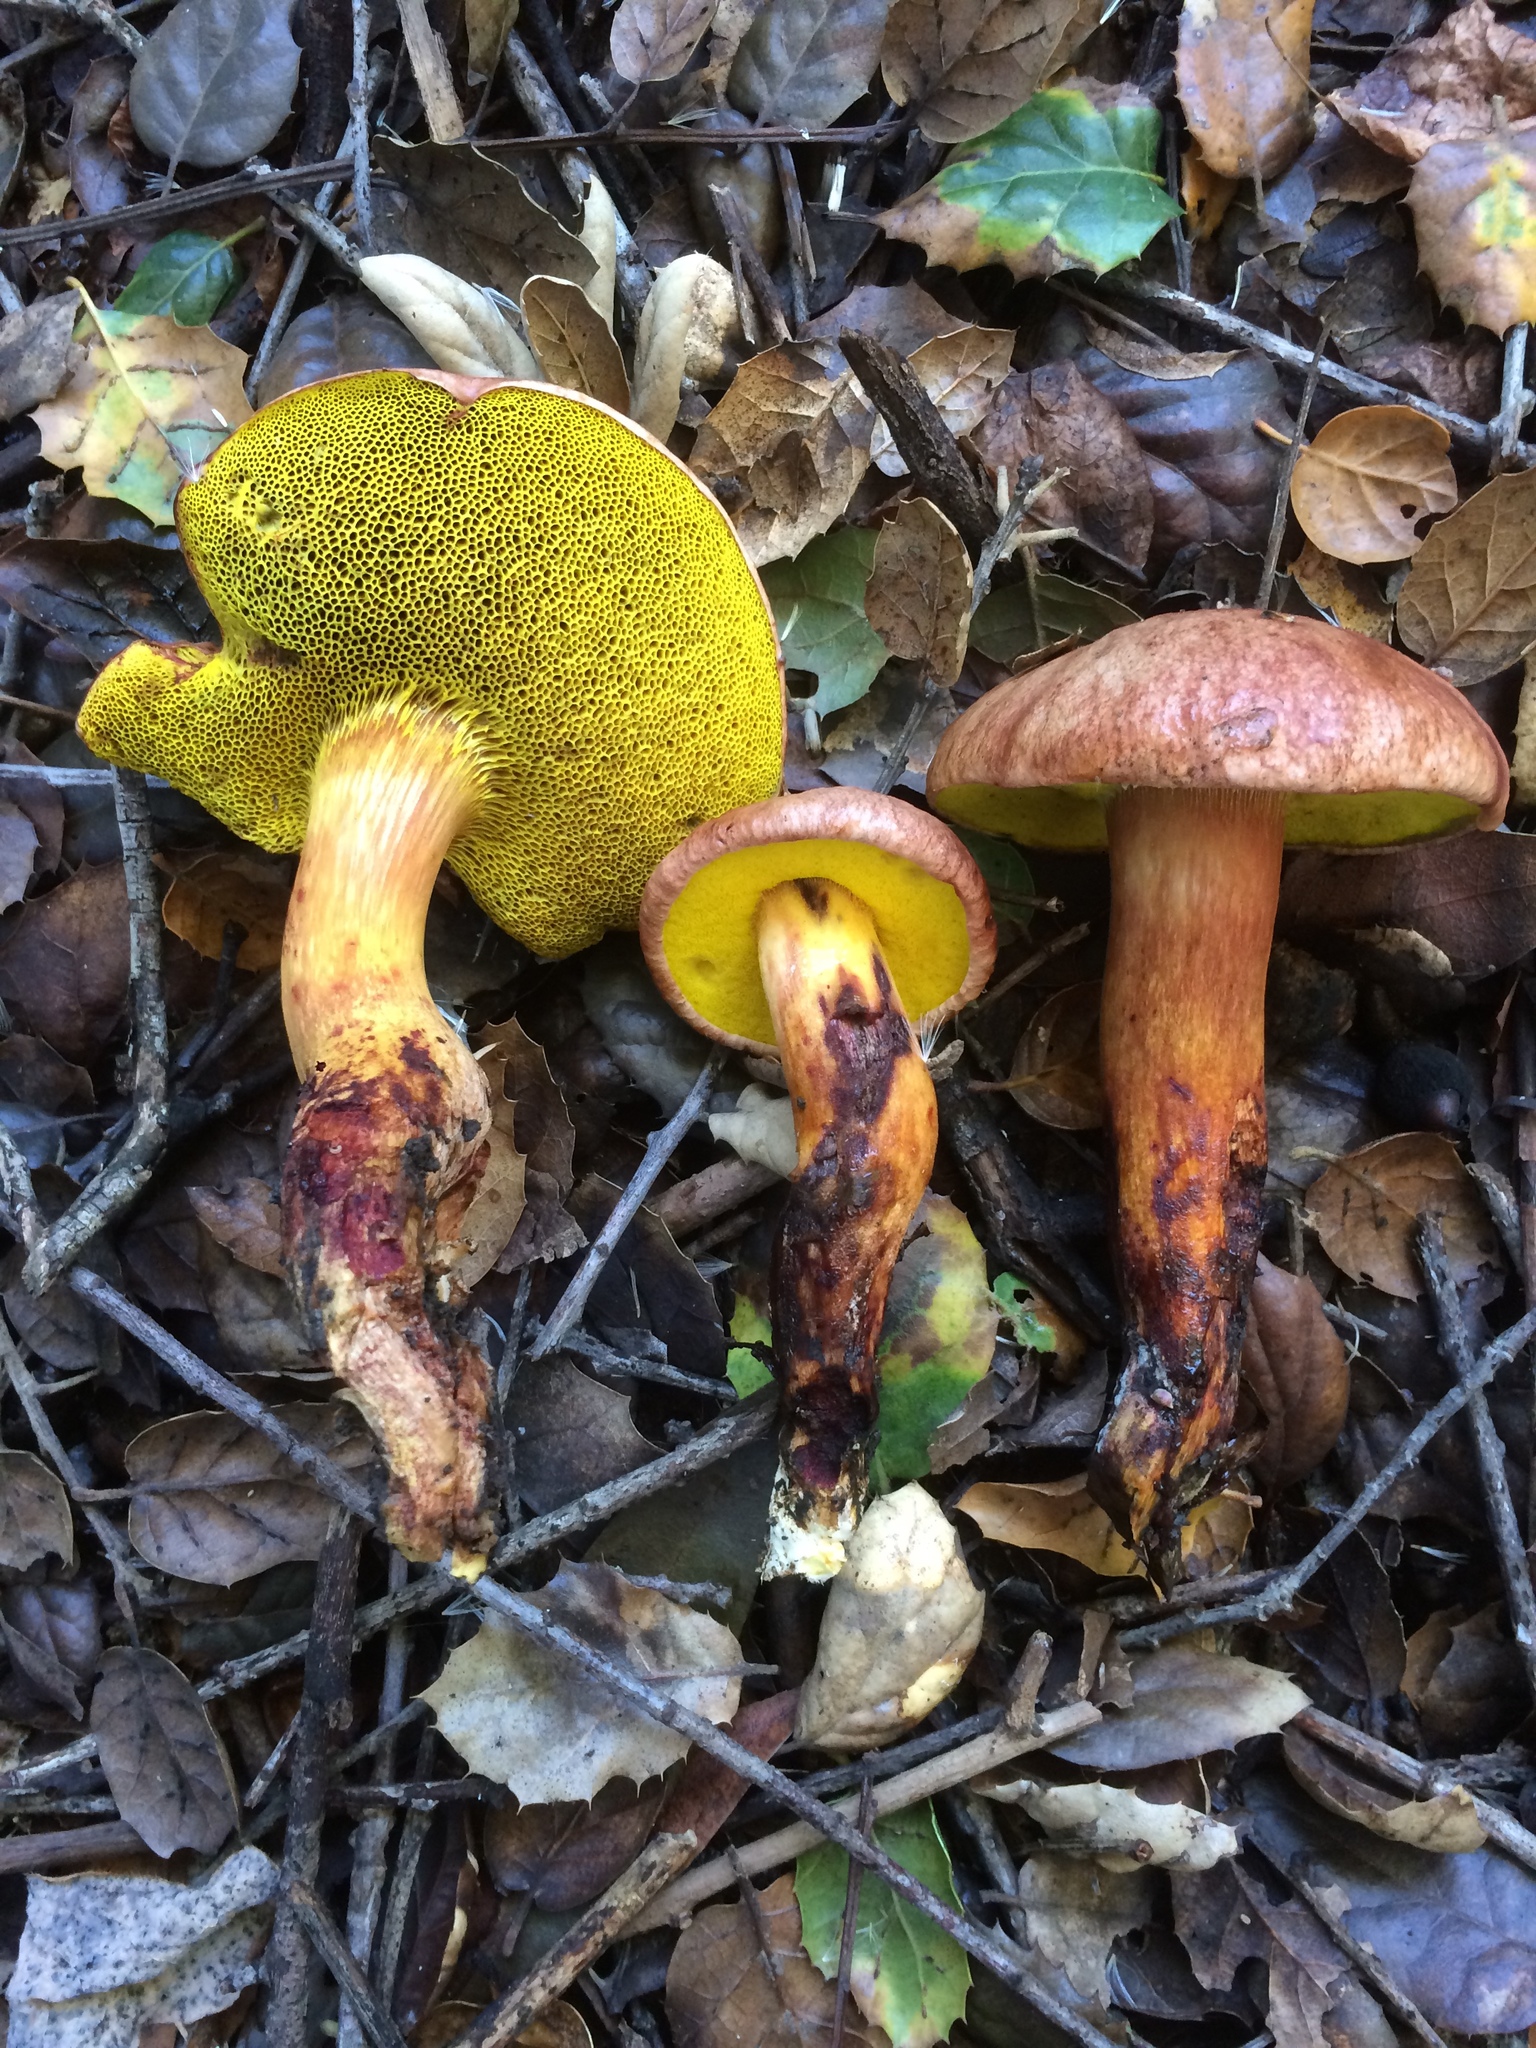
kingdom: Fungi
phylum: Basidiomycota
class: Agaricomycetes
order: Boletales
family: Boletaceae
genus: Aureoboletus
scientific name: Aureoboletus flaviporus
